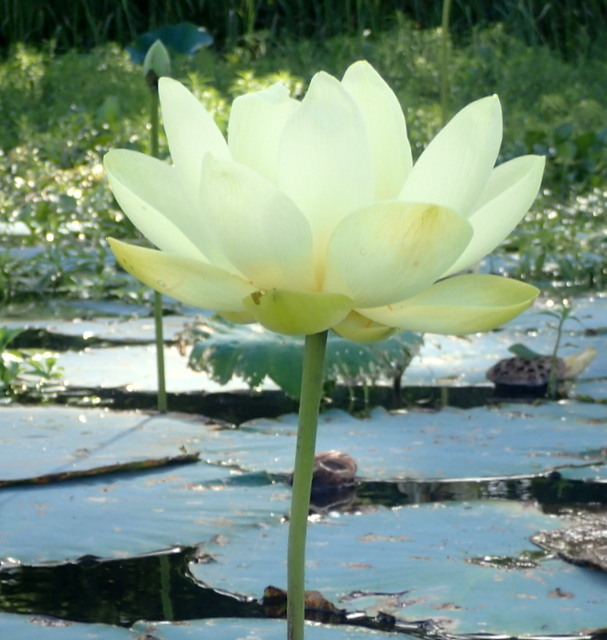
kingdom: Plantae
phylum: Tracheophyta
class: Magnoliopsida
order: Proteales
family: Nelumbonaceae
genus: Nelumbo
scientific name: Nelumbo lutea
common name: American lotus
